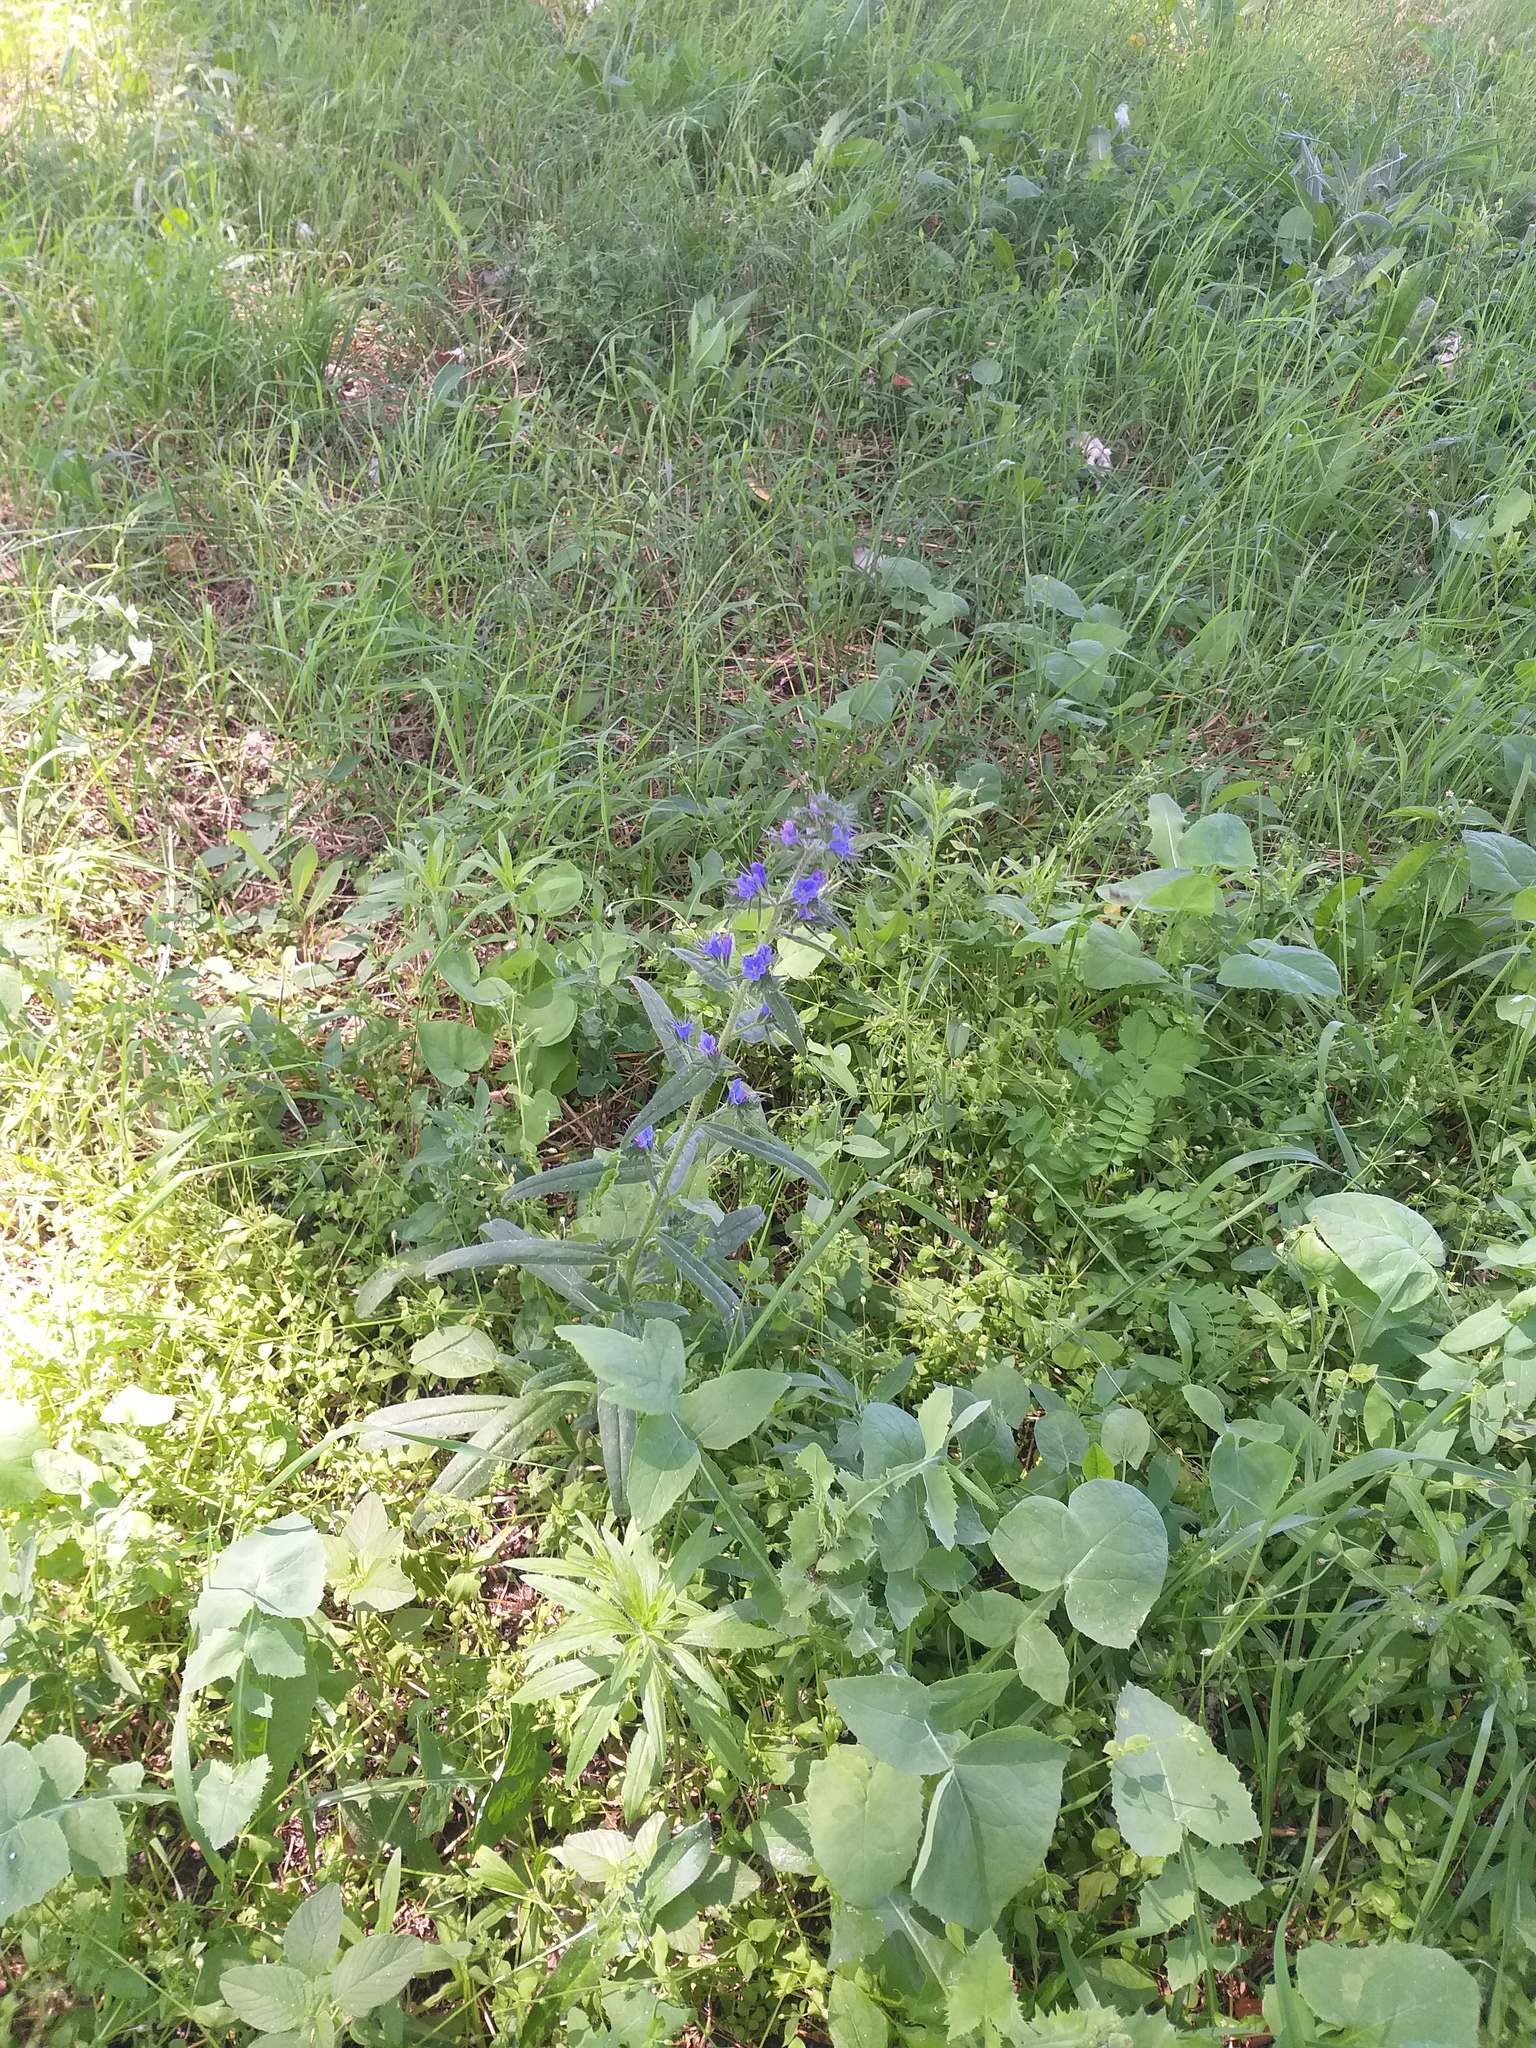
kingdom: Plantae
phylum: Tracheophyta
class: Magnoliopsida
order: Boraginales
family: Boraginaceae
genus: Echium
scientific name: Echium vulgare
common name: Common viper's bugloss
